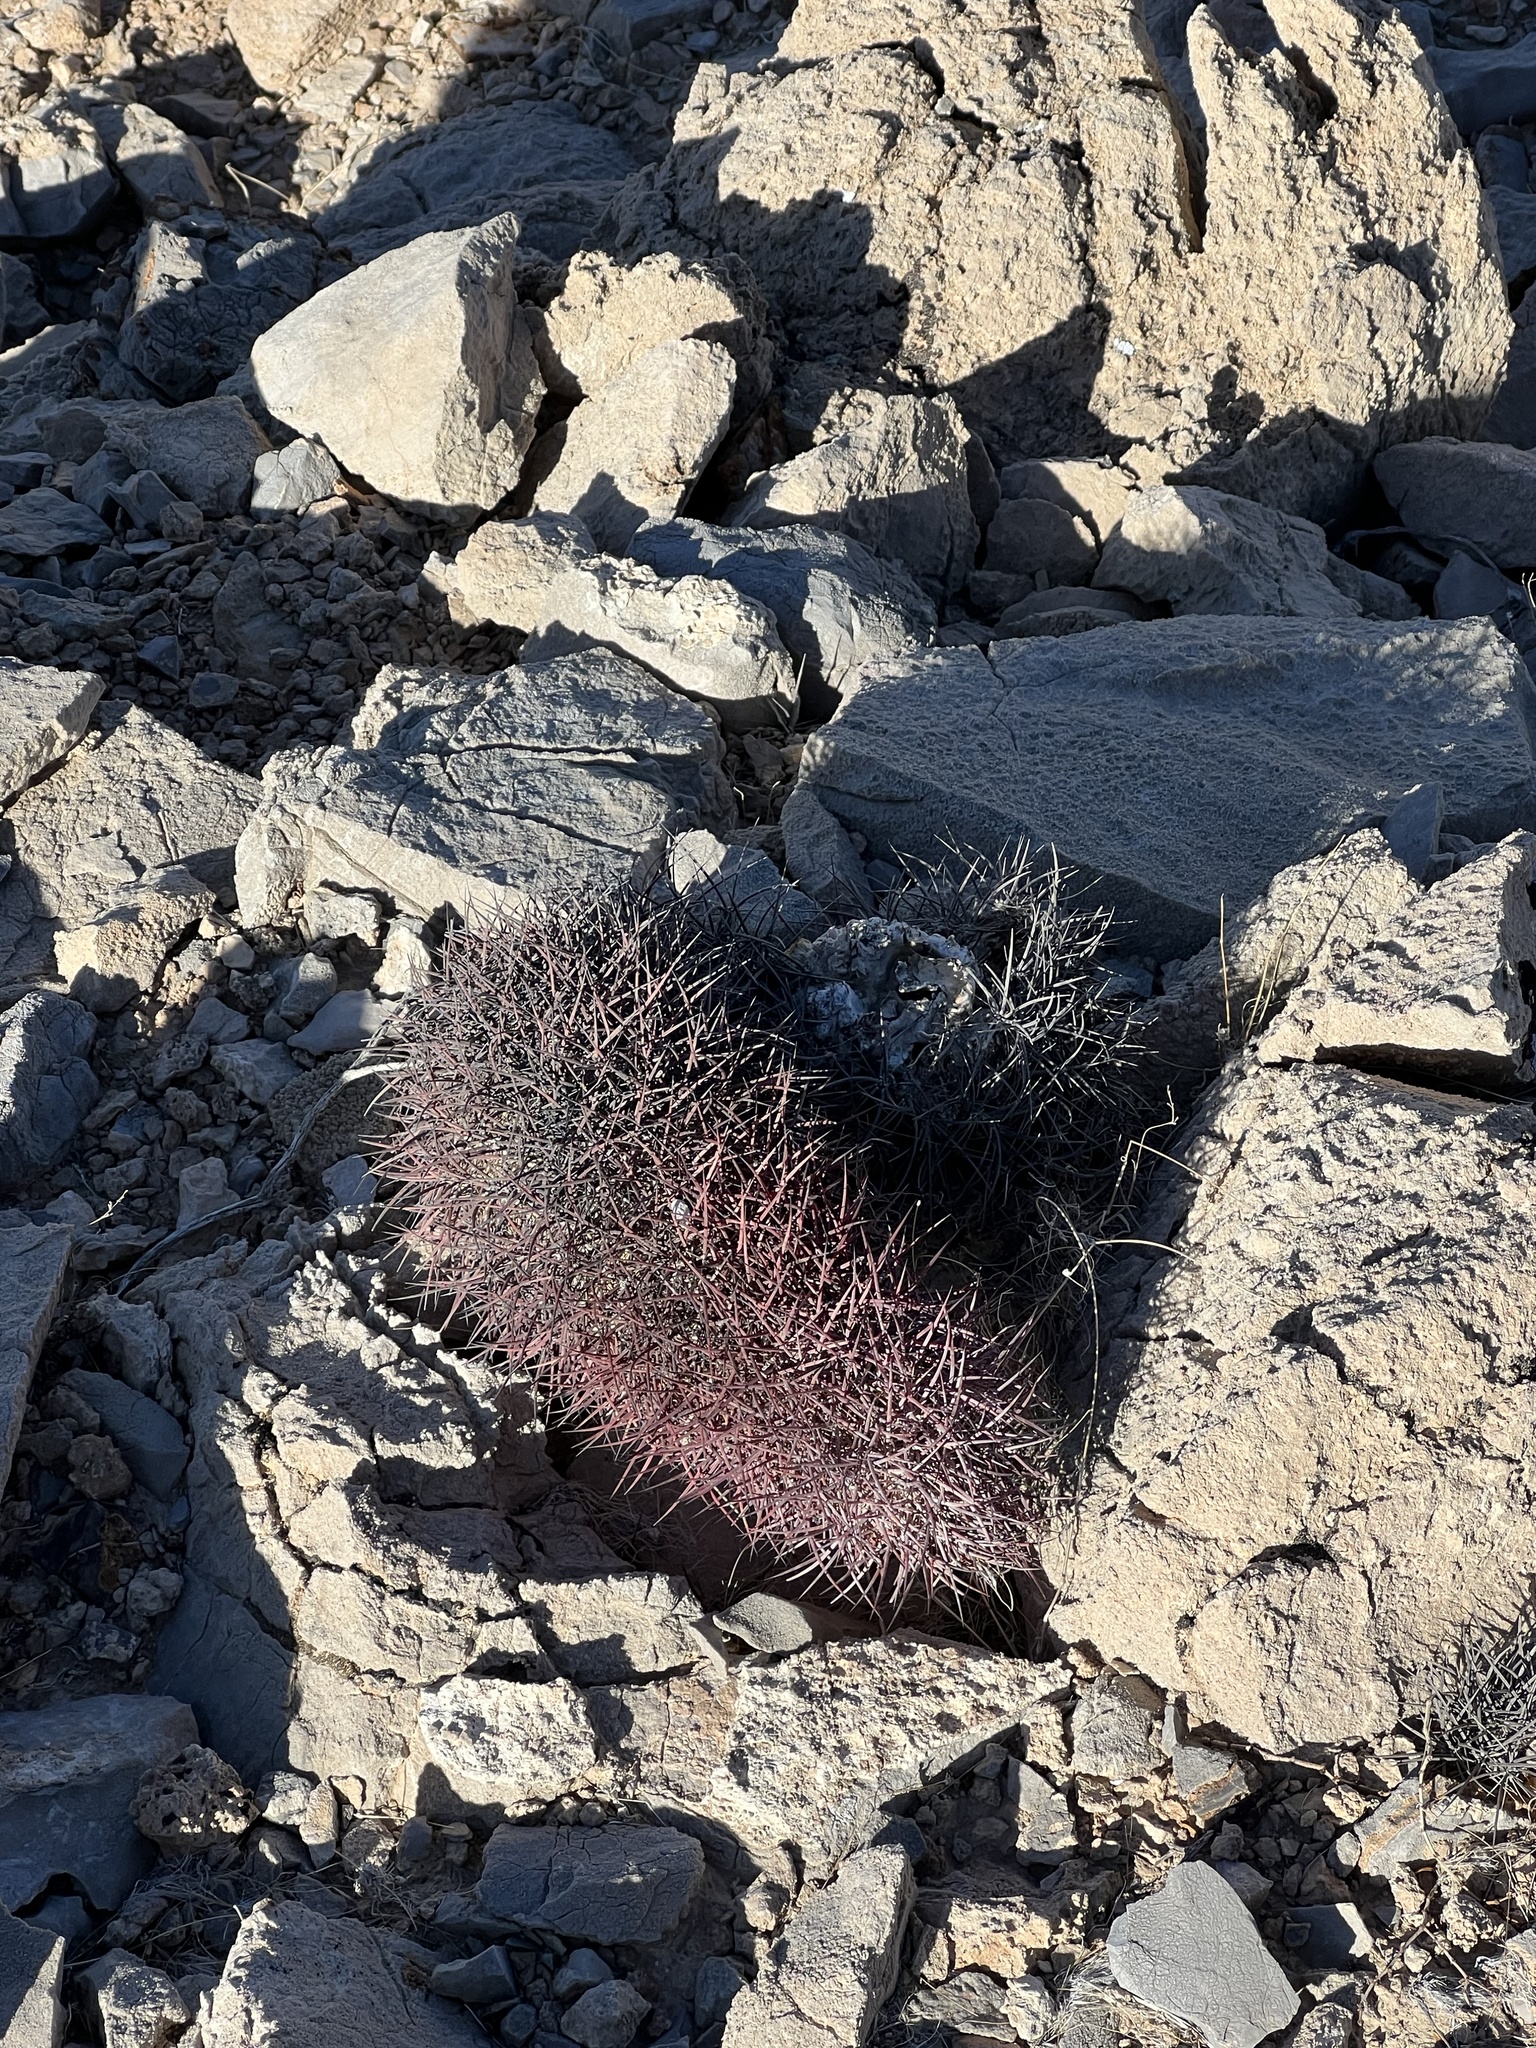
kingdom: Plantae
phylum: Tracheophyta
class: Magnoliopsida
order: Caryophyllales
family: Cactaceae
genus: Sclerocactus
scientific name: Sclerocactus johnsonii
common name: Eight-spine fishhook cactus
